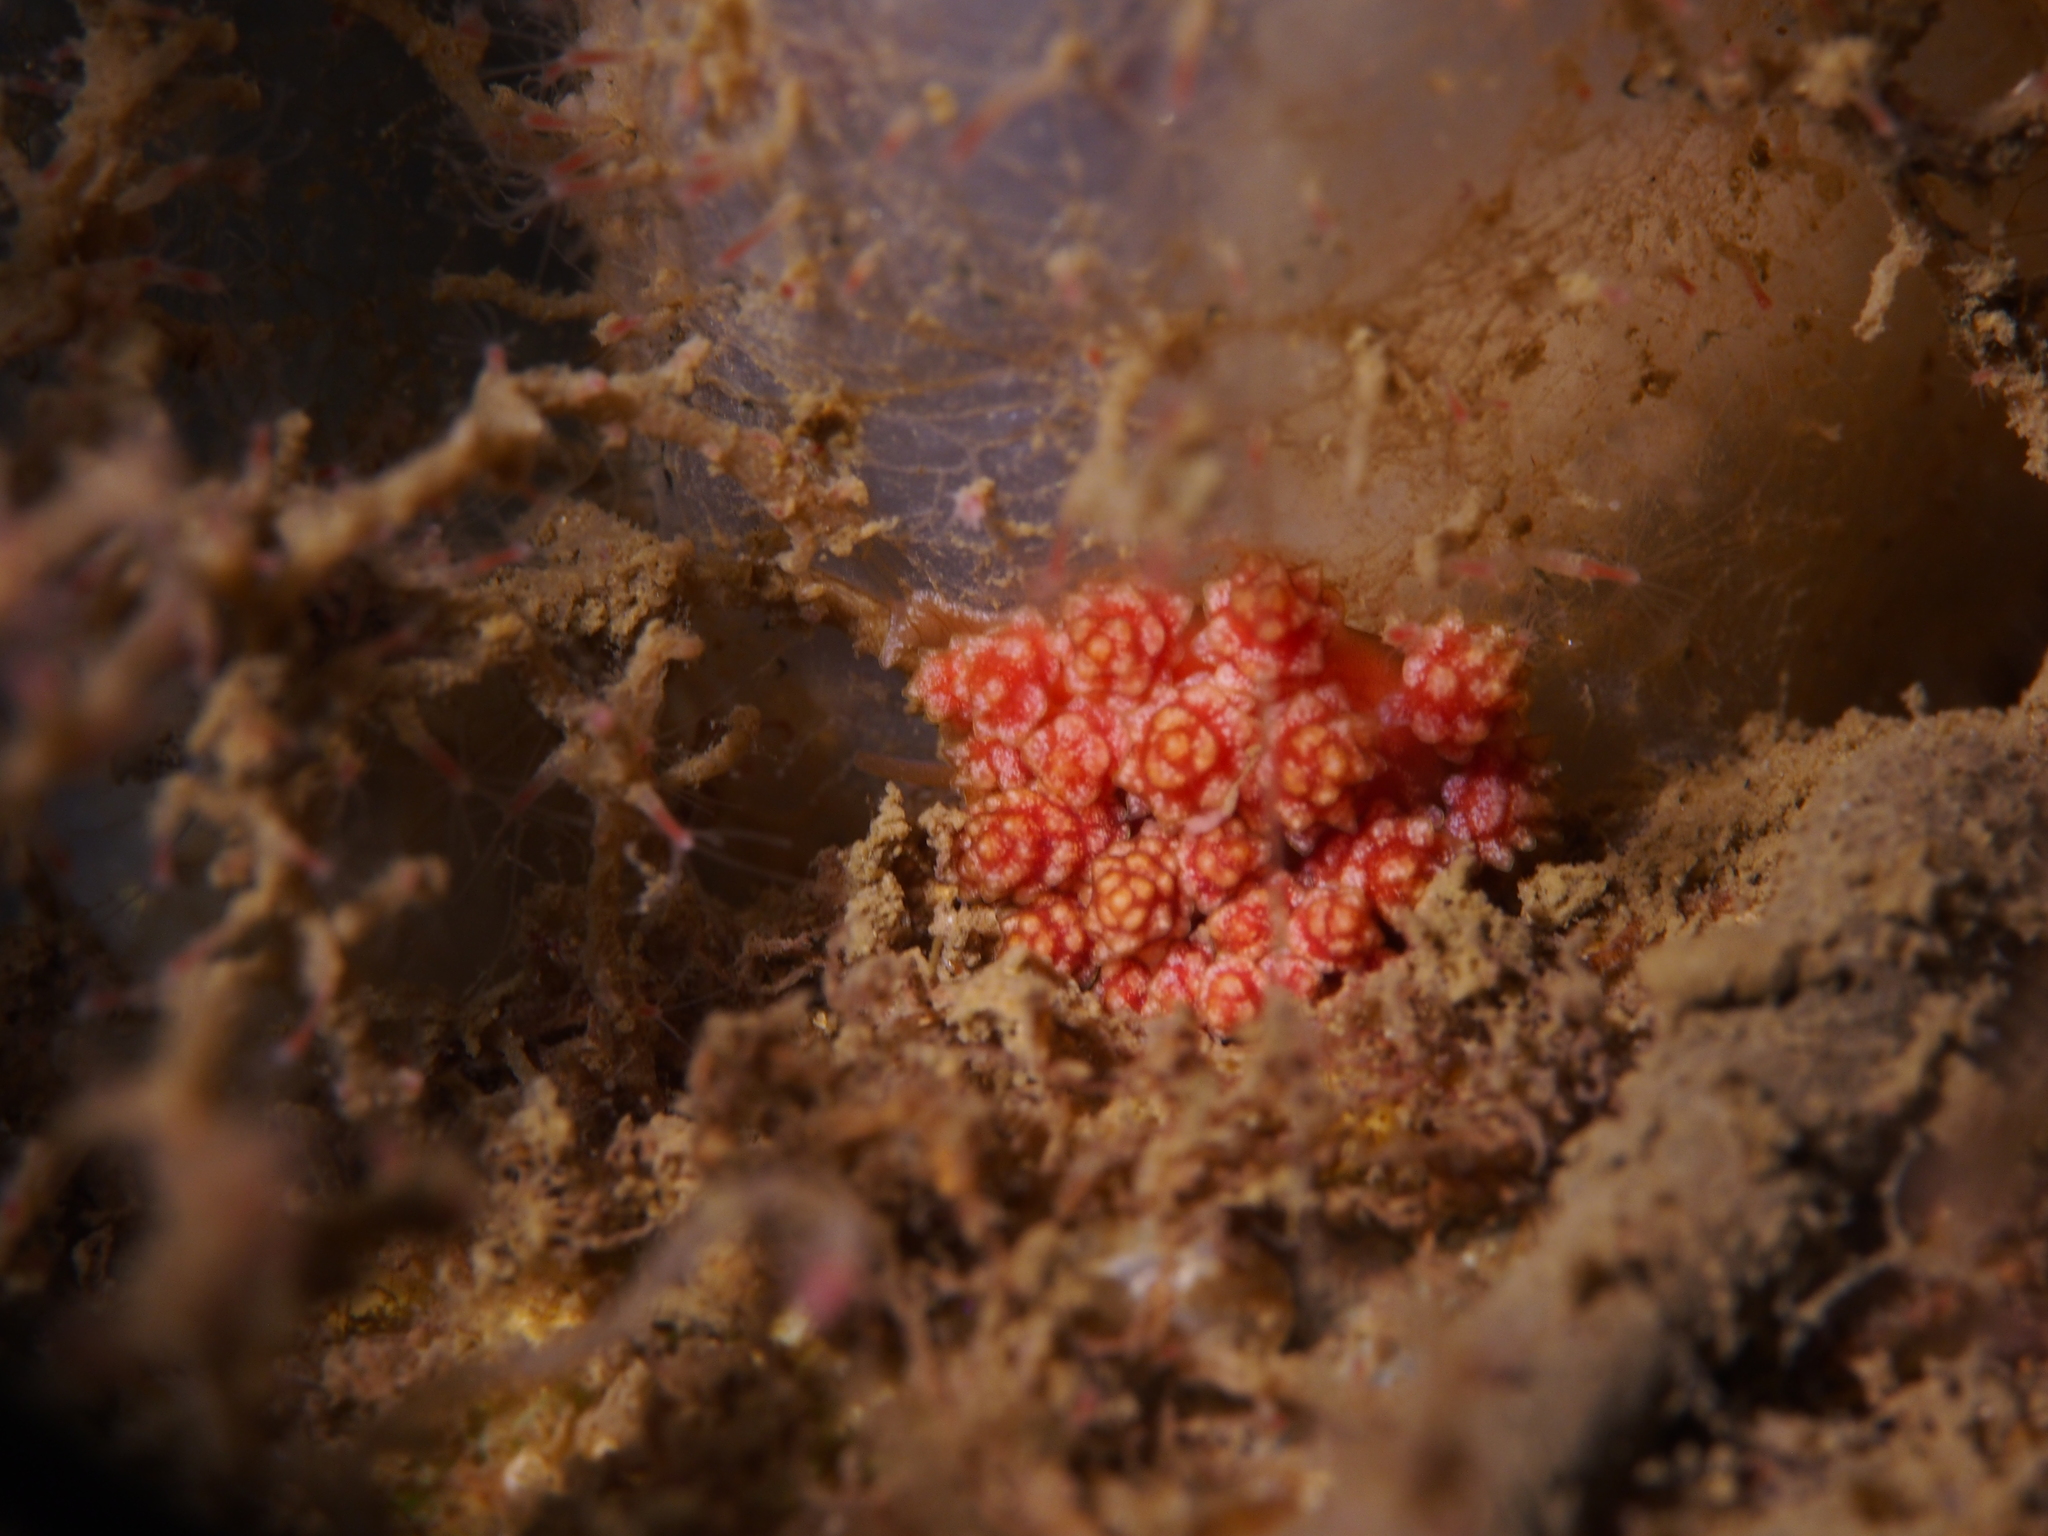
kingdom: Animalia
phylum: Mollusca
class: Gastropoda
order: Nudibranchia
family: Dotidae
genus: Doto
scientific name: Doto fragilis
